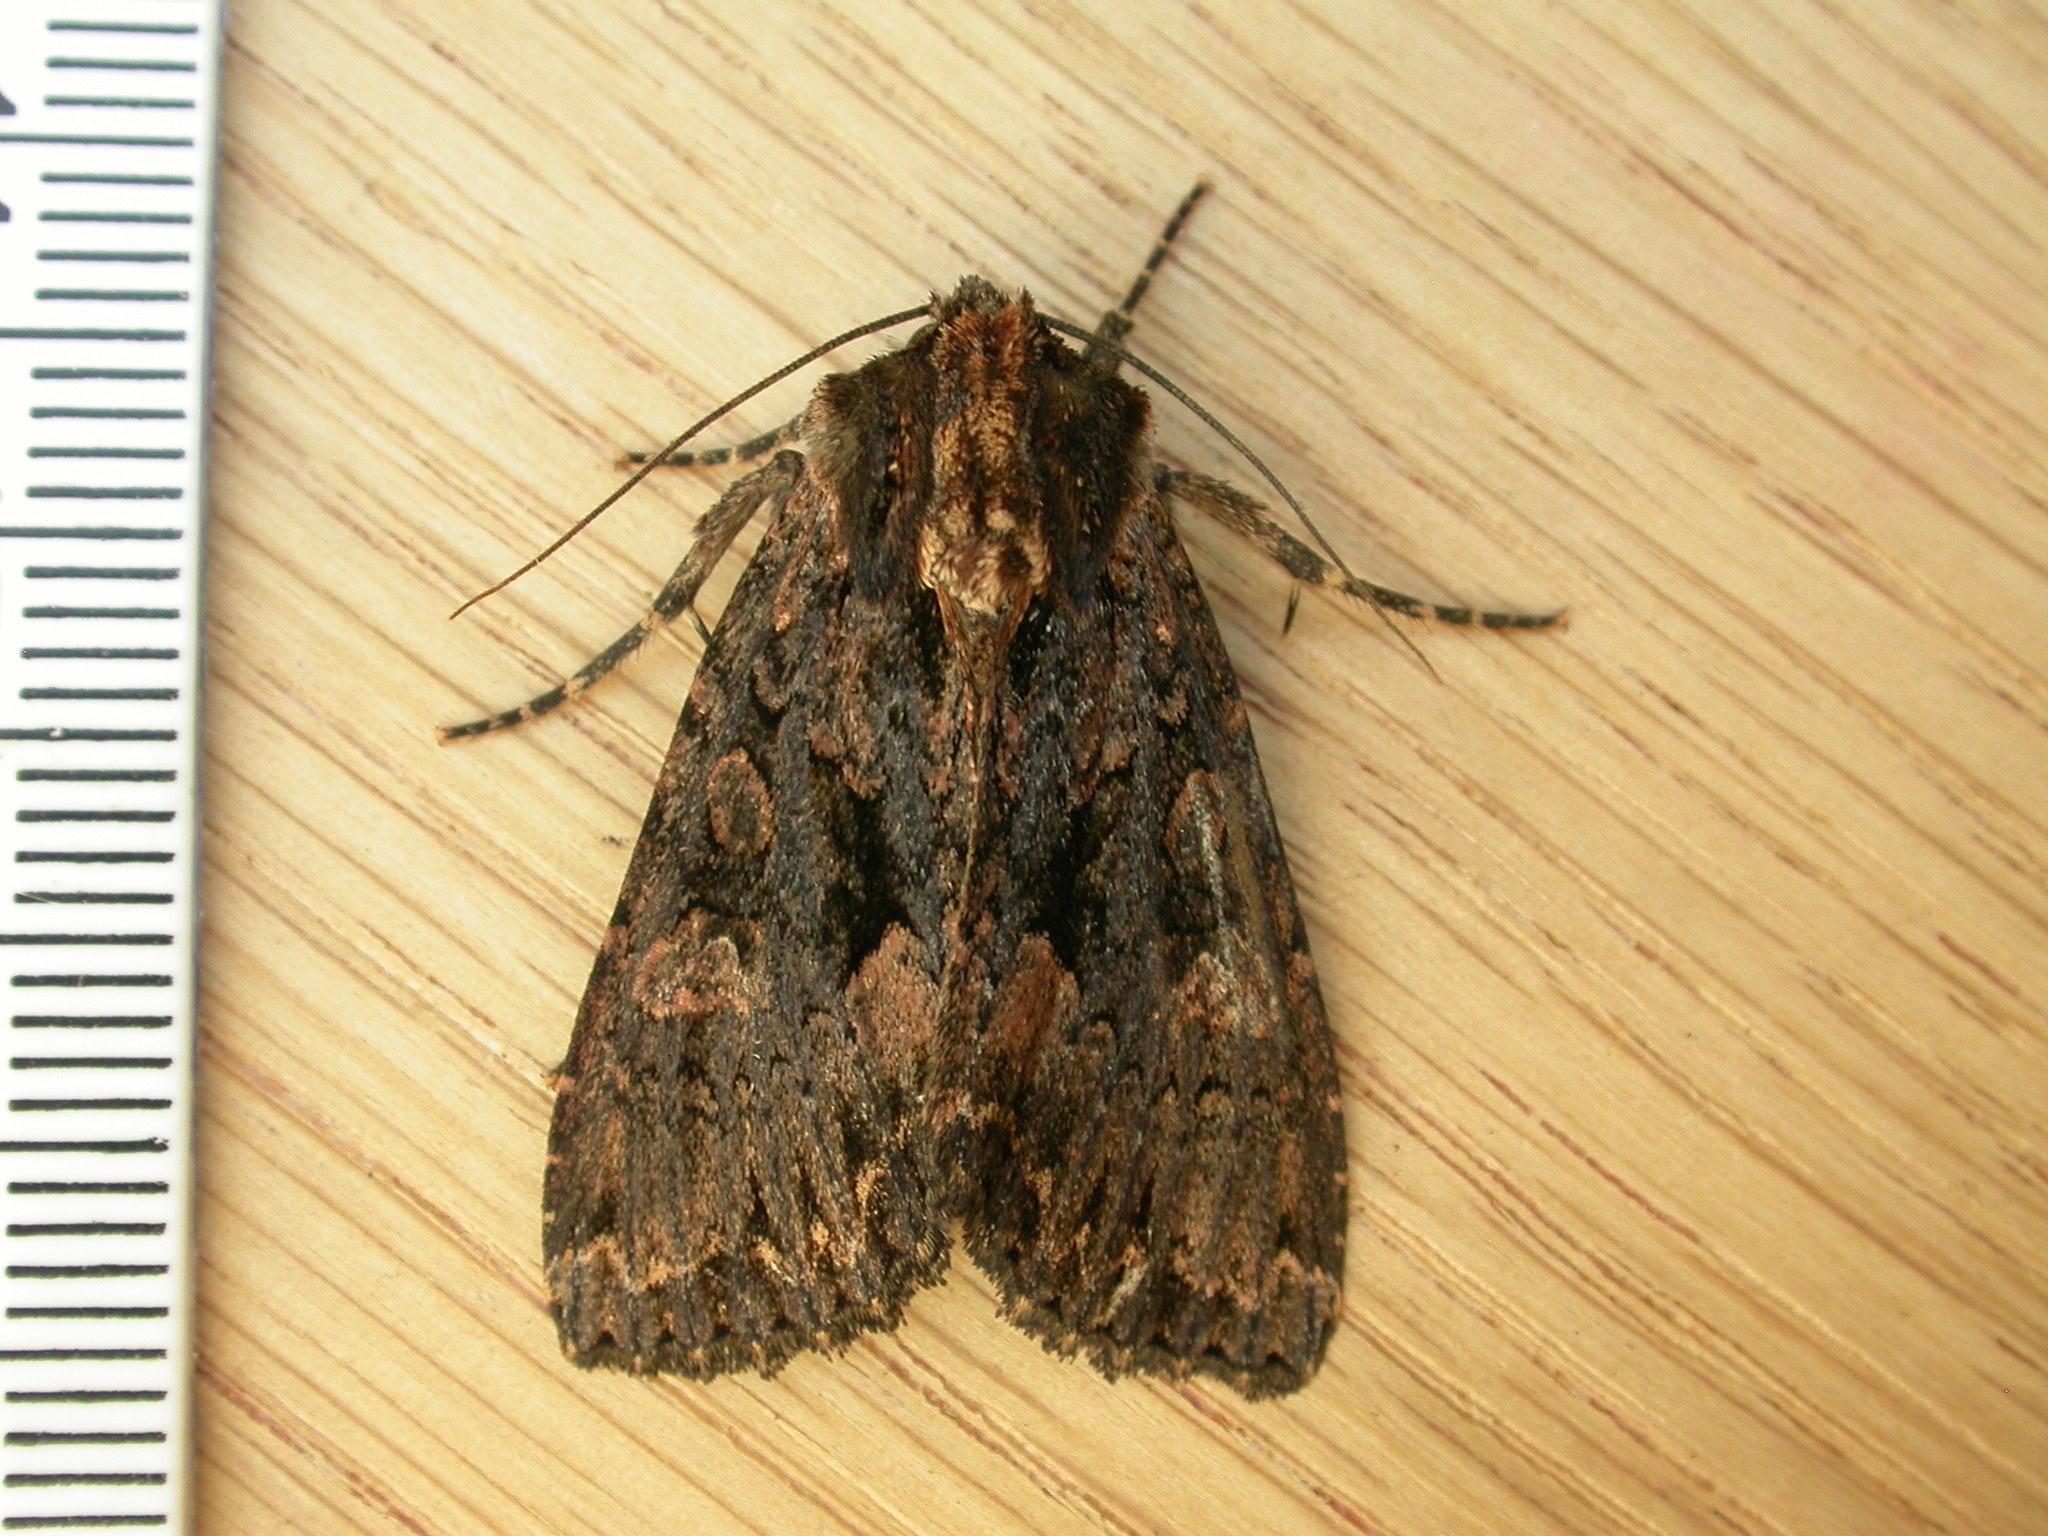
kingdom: Animalia
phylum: Arthropoda
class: Insecta
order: Lepidoptera
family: Noctuidae
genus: Mniotype
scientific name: Mniotype satura
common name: Beautiful arches
